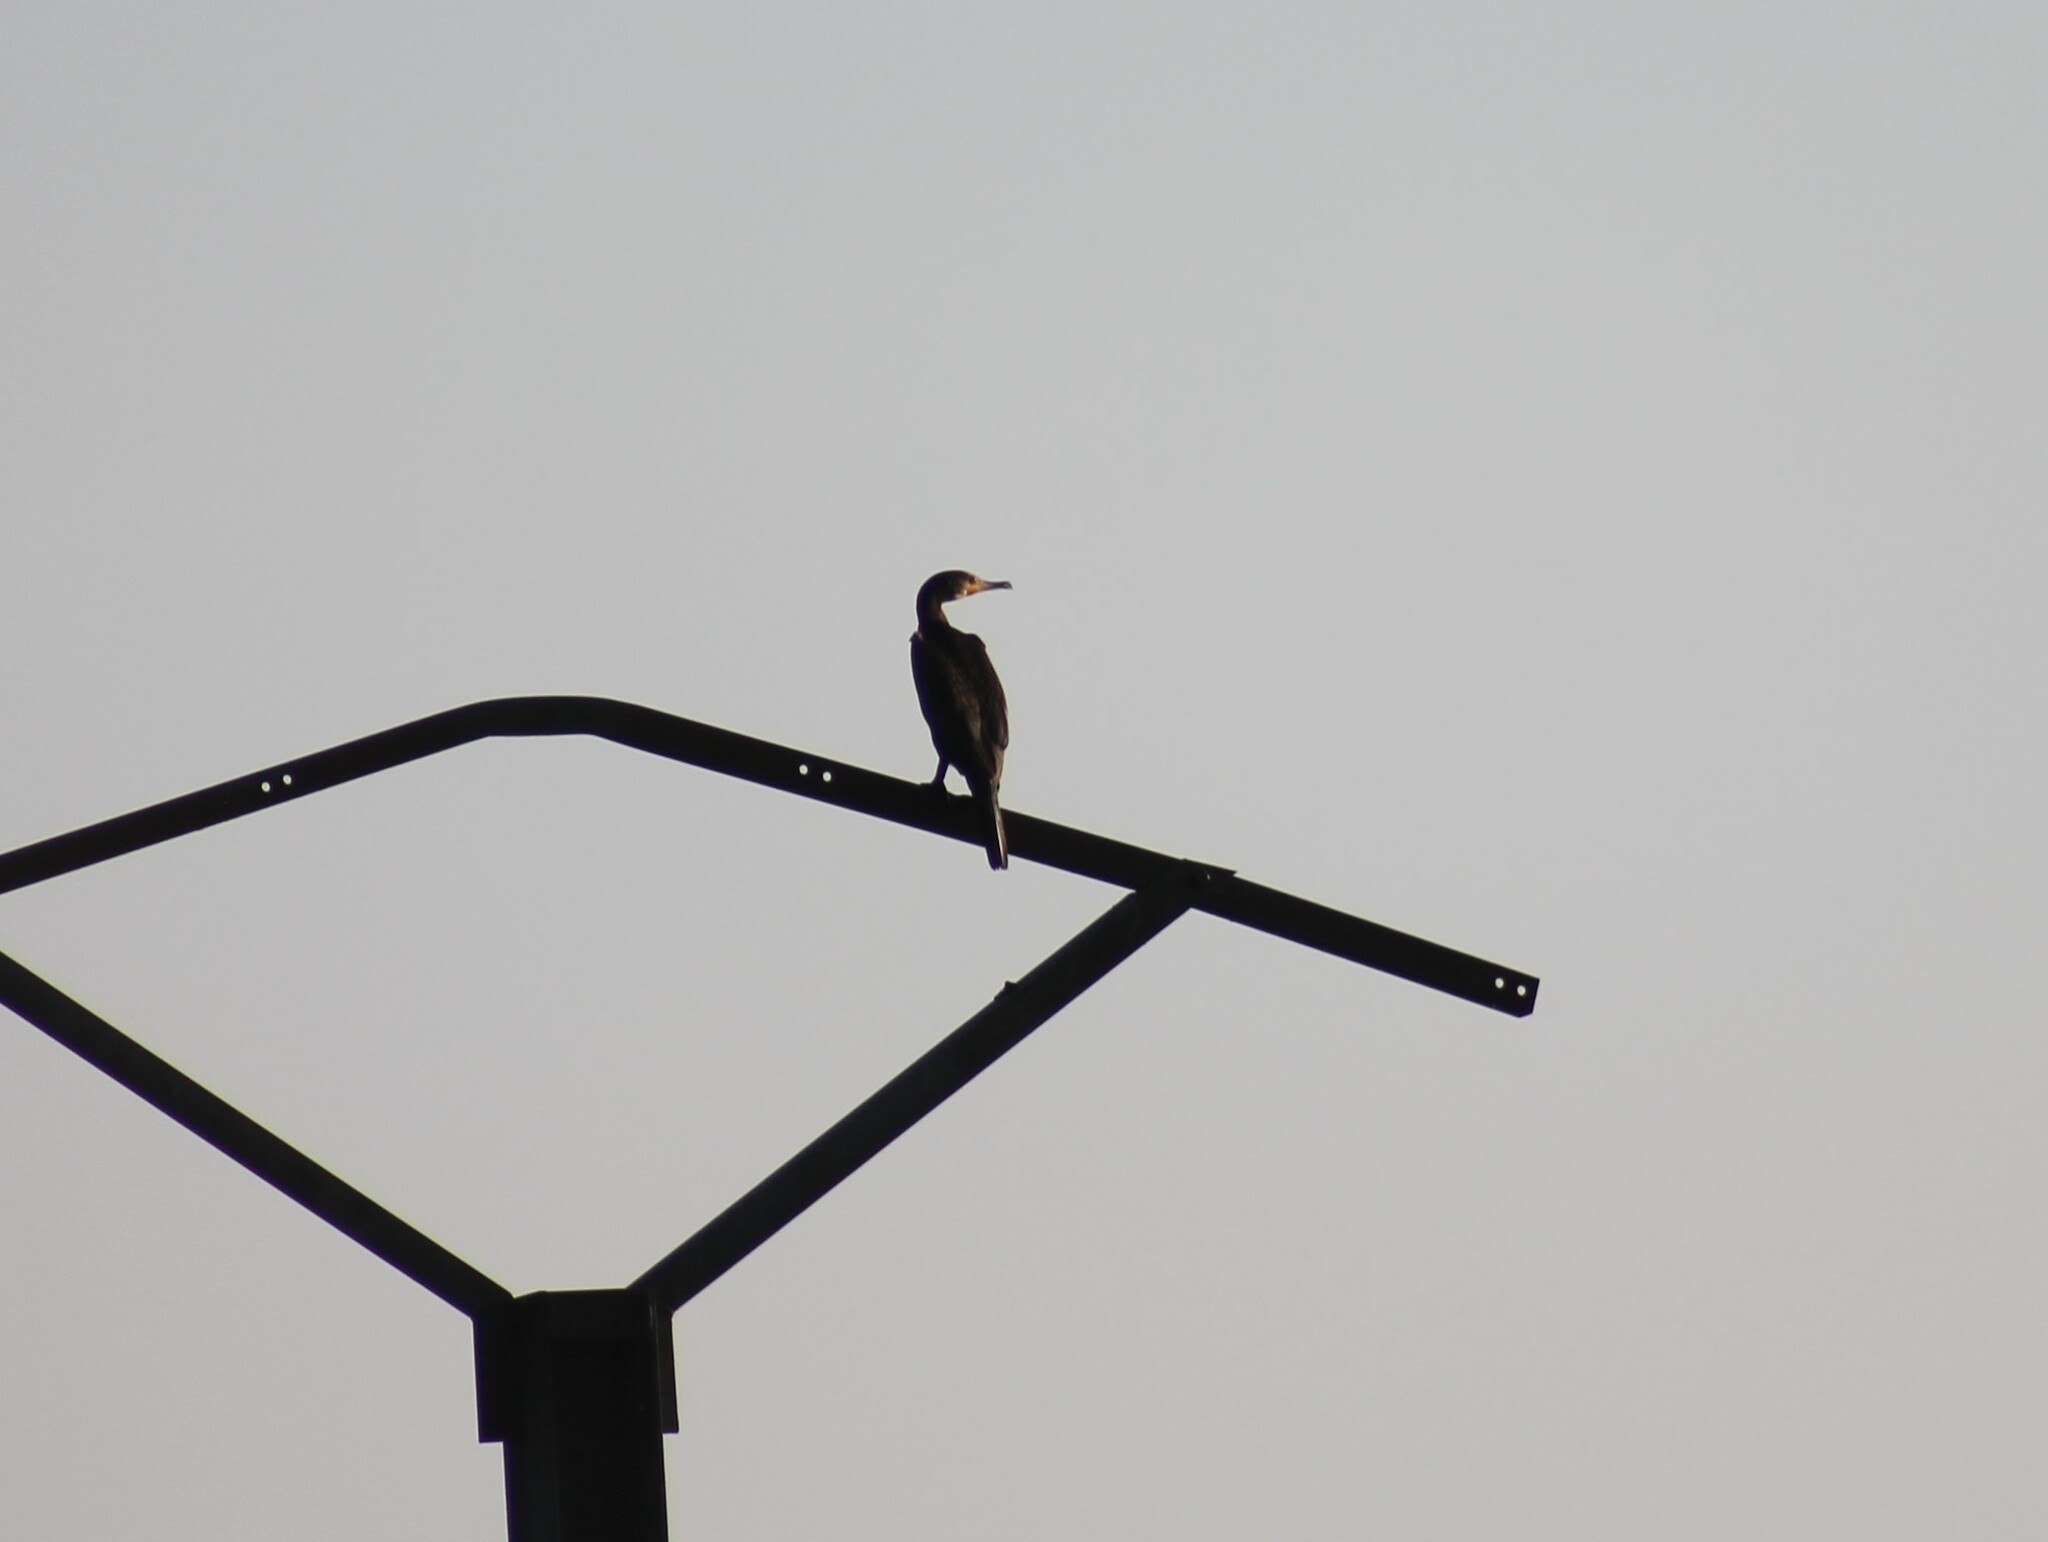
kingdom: Animalia
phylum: Chordata
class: Aves
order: Suliformes
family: Phalacrocoracidae
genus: Phalacrocorax
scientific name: Phalacrocorax carbo
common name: Great cormorant
